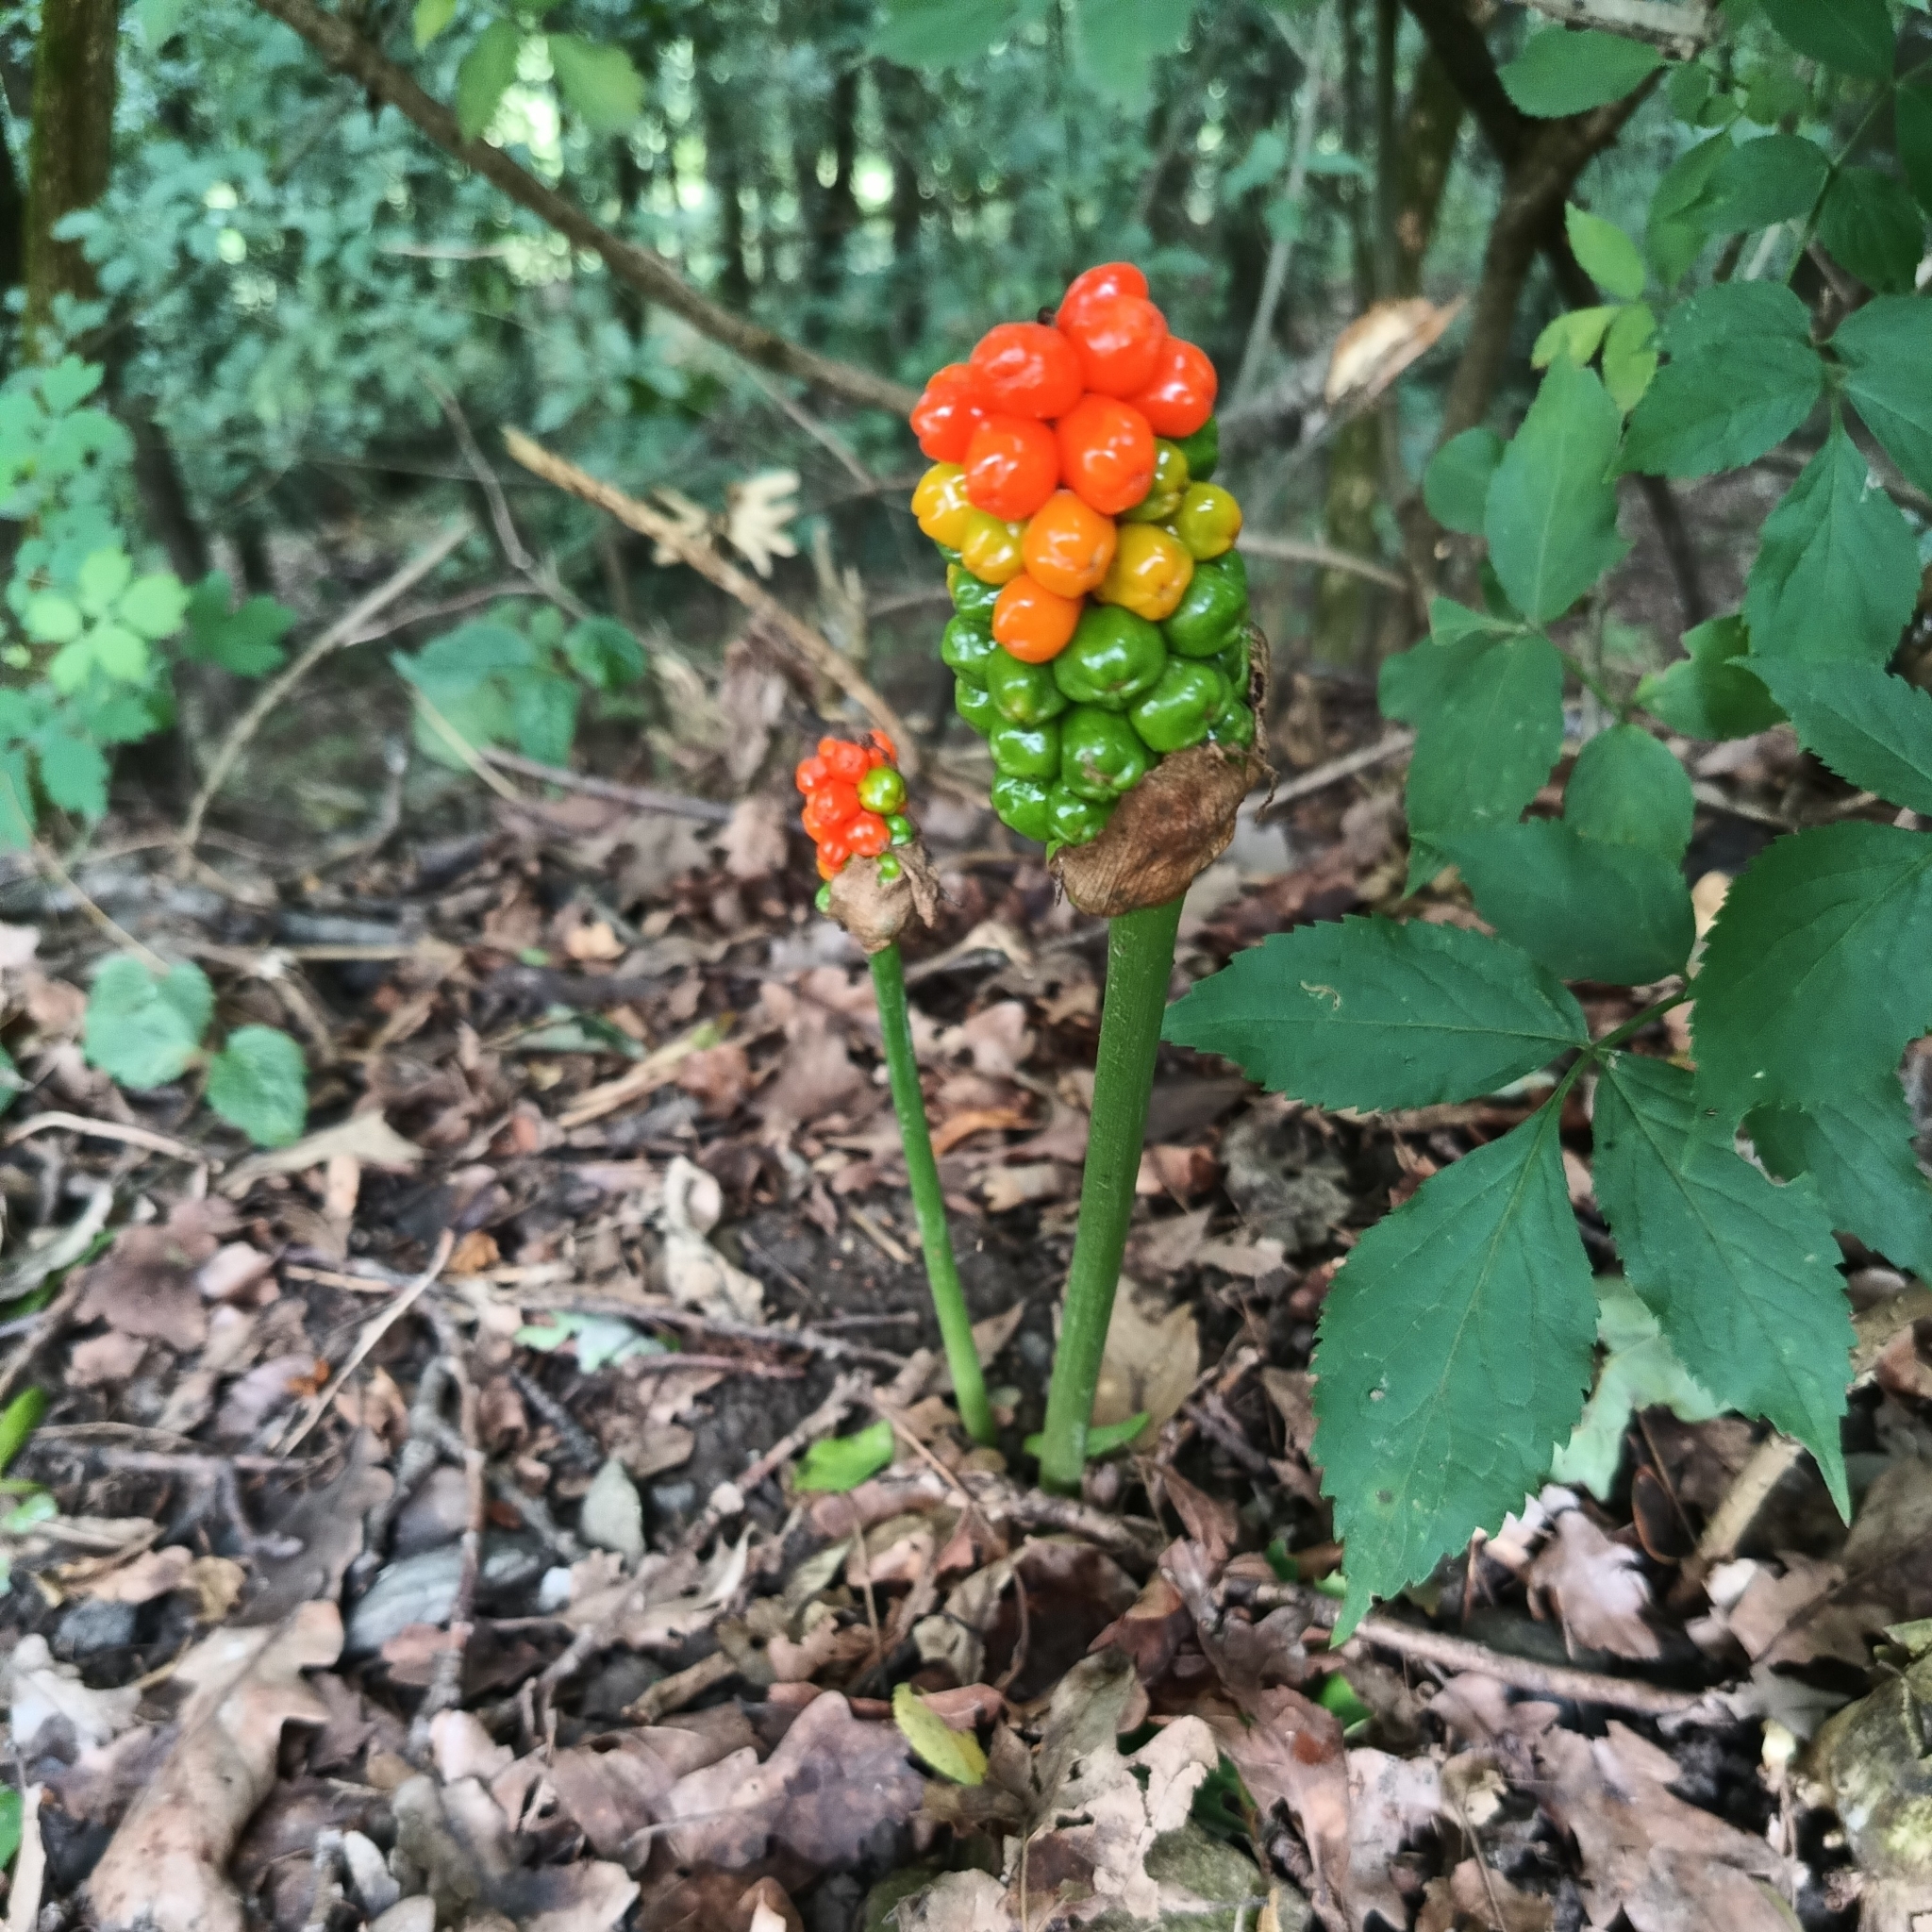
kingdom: Plantae
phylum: Tracheophyta
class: Liliopsida
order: Alismatales
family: Araceae
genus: Arum
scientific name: Arum cylindraceum
